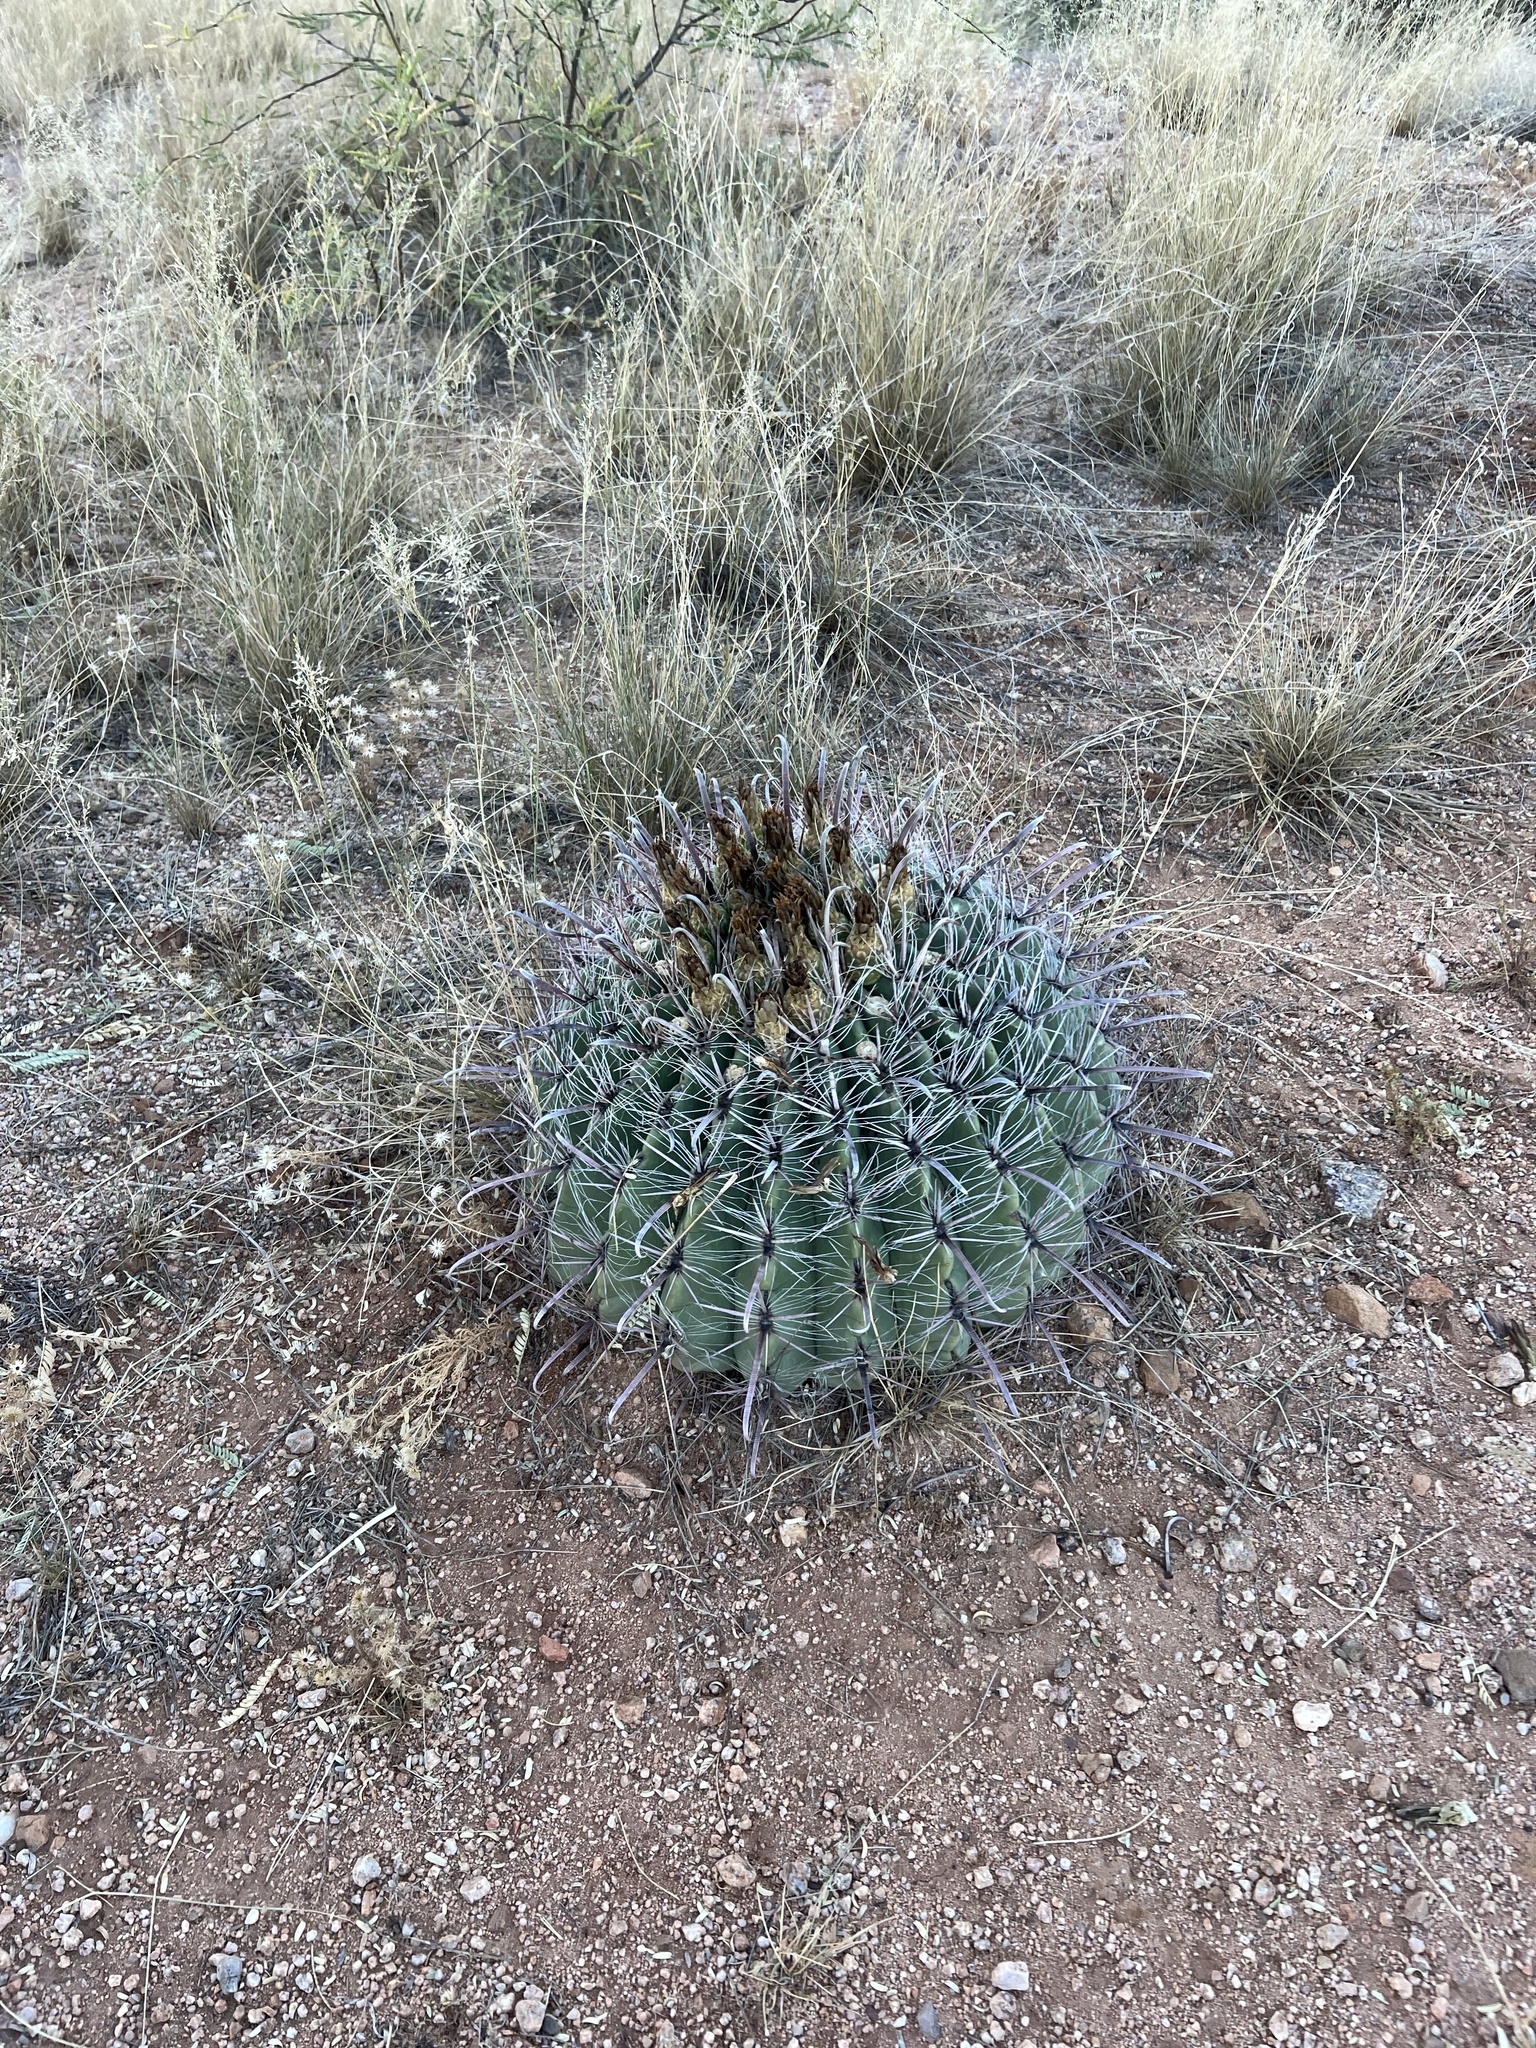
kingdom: Plantae
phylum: Tracheophyta
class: Magnoliopsida
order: Caryophyllales
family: Cactaceae
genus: Ferocactus
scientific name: Ferocactus wislizeni
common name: Candy barrel cactus
